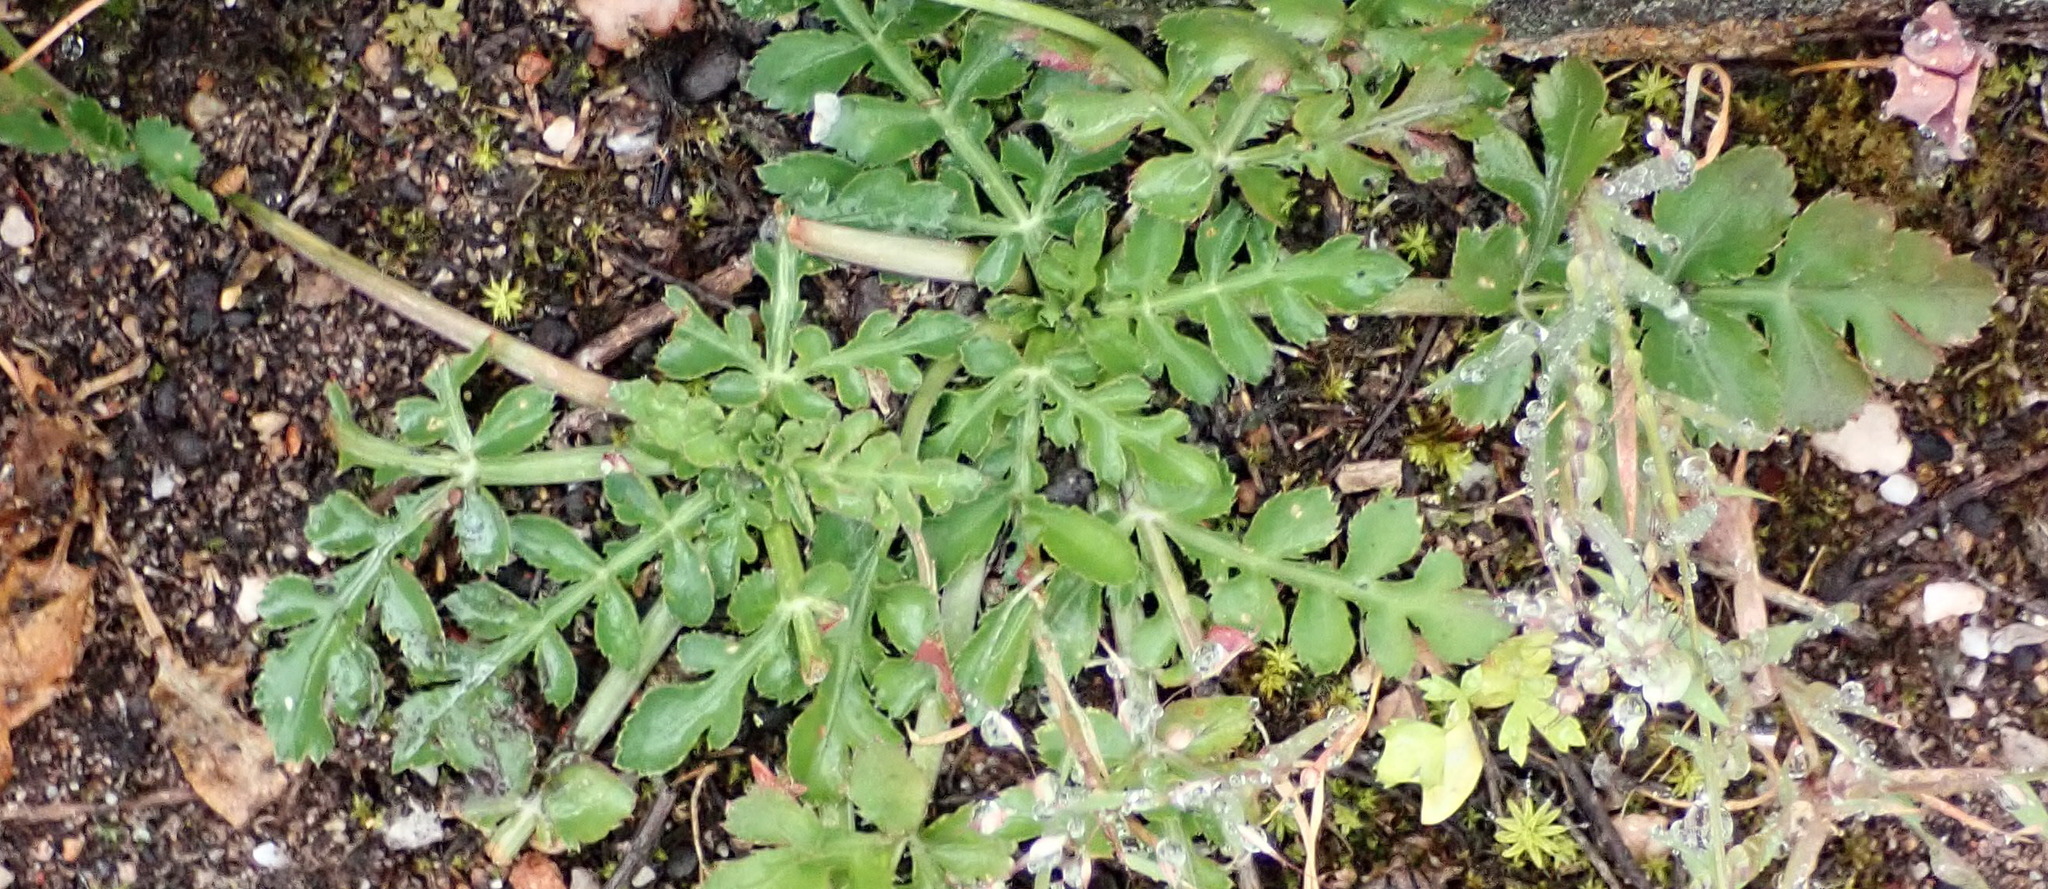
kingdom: Plantae
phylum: Tracheophyta
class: Magnoliopsida
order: Apiales
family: Apiaceae
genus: Lichtensteinia
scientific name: Lichtensteinia interrupta
